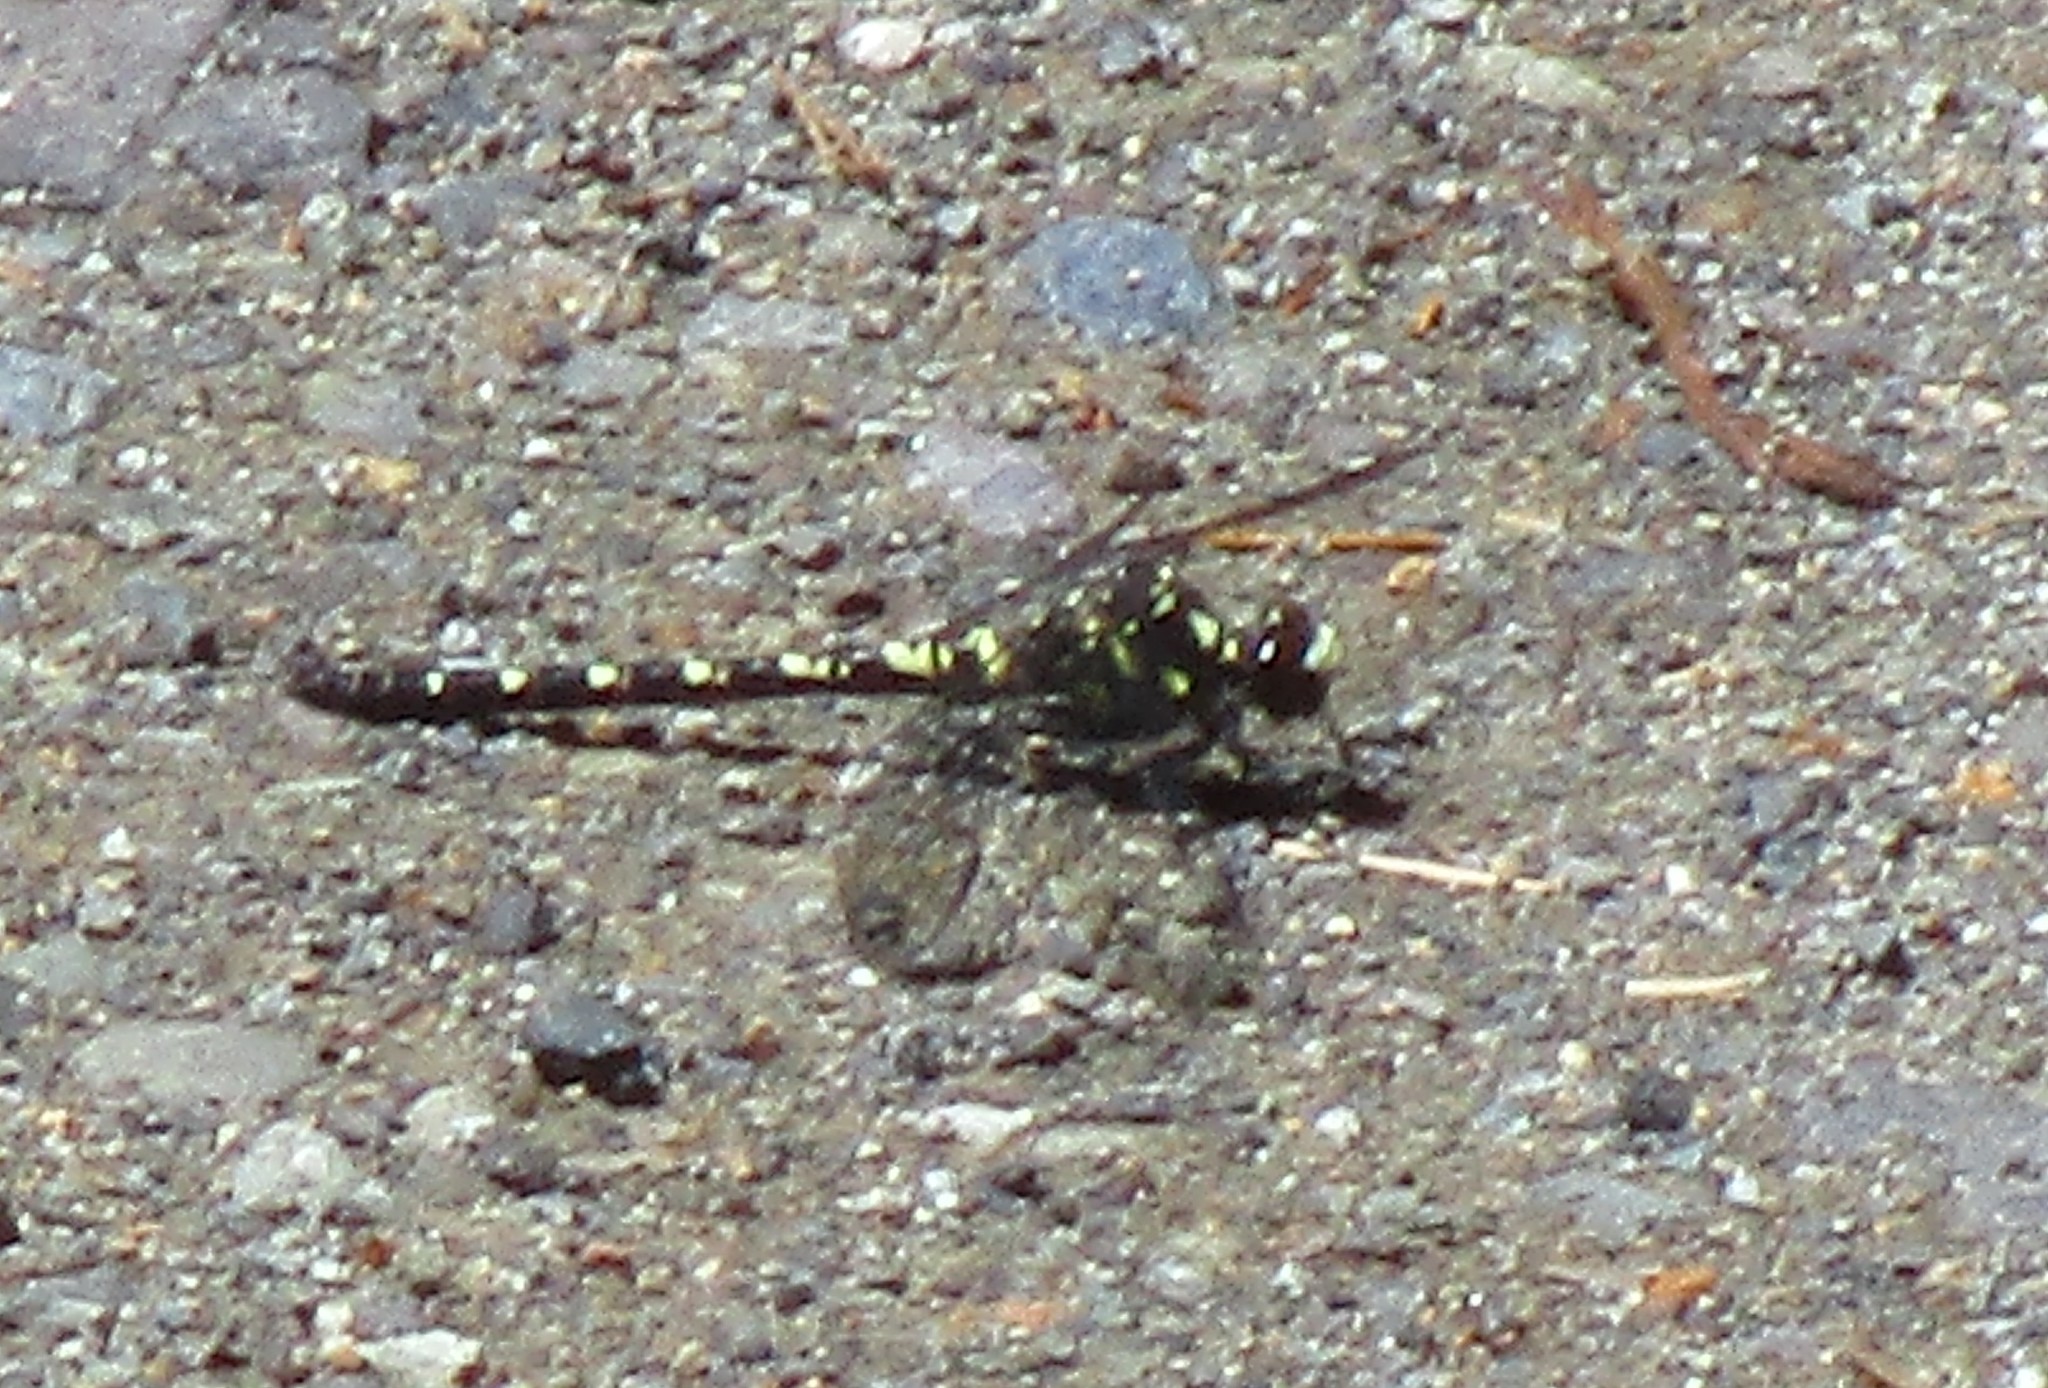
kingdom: Animalia
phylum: Arthropoda
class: Insecta
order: Odonata
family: Petaluridae
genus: Tanypteryx
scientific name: Tanypteryx hageni
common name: Black petaltail
